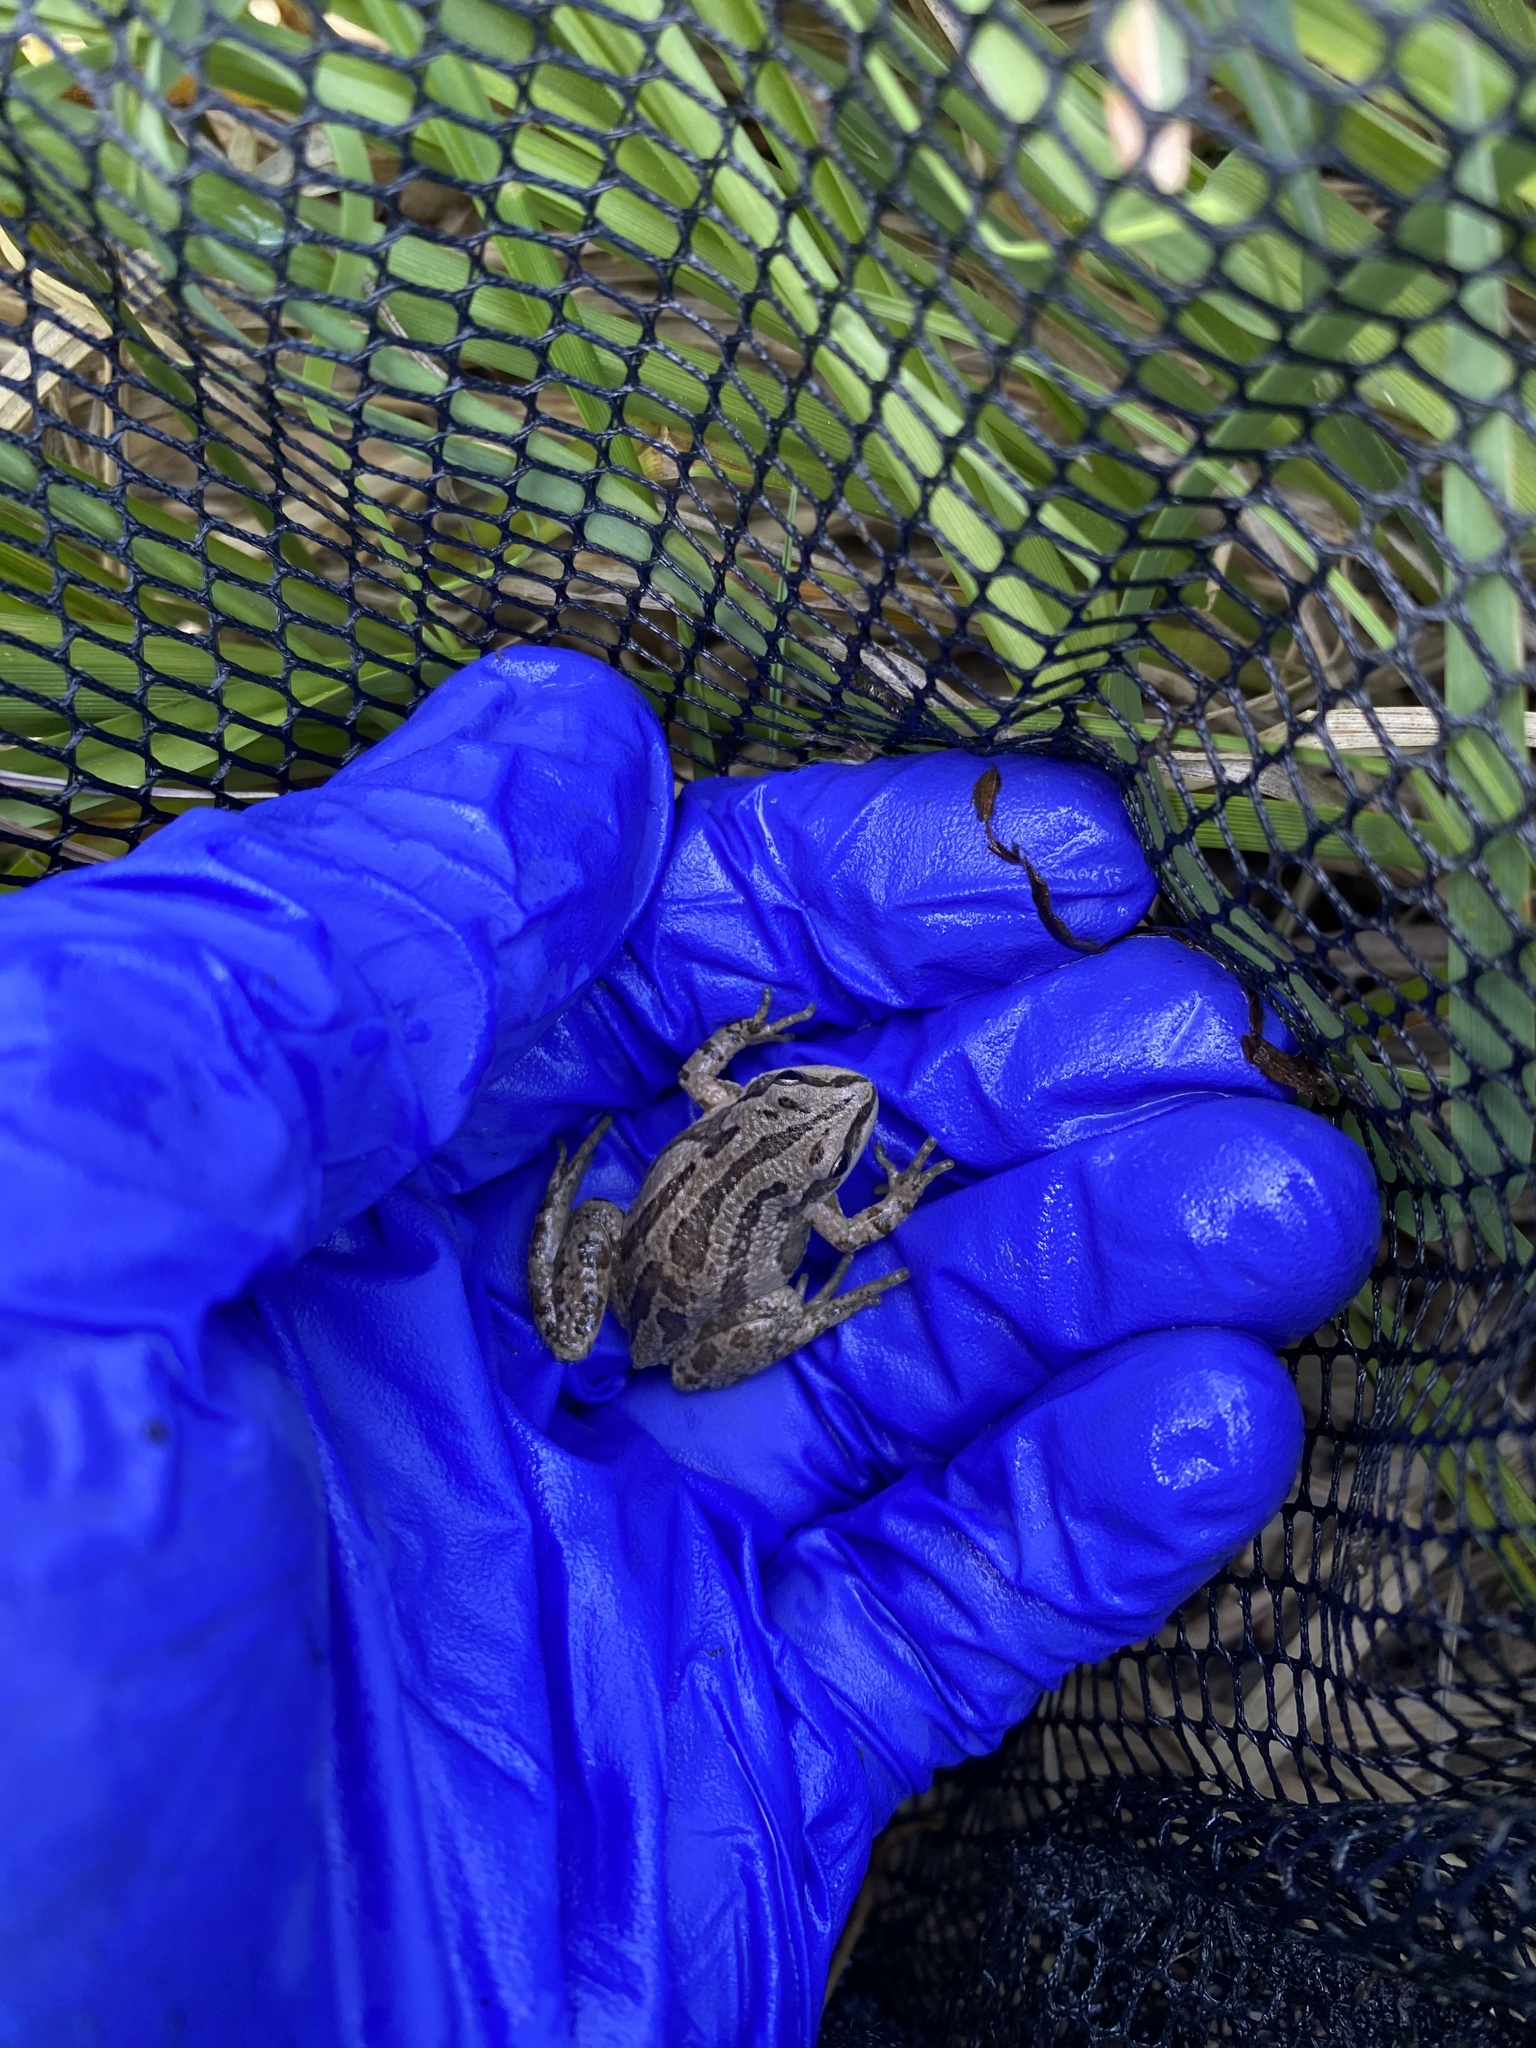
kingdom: Animalia
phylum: Chordata
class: Amphibia
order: Anura
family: Hylidae
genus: Pseudacris
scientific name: Pseudacris maculata
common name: Boreal chorus frog
